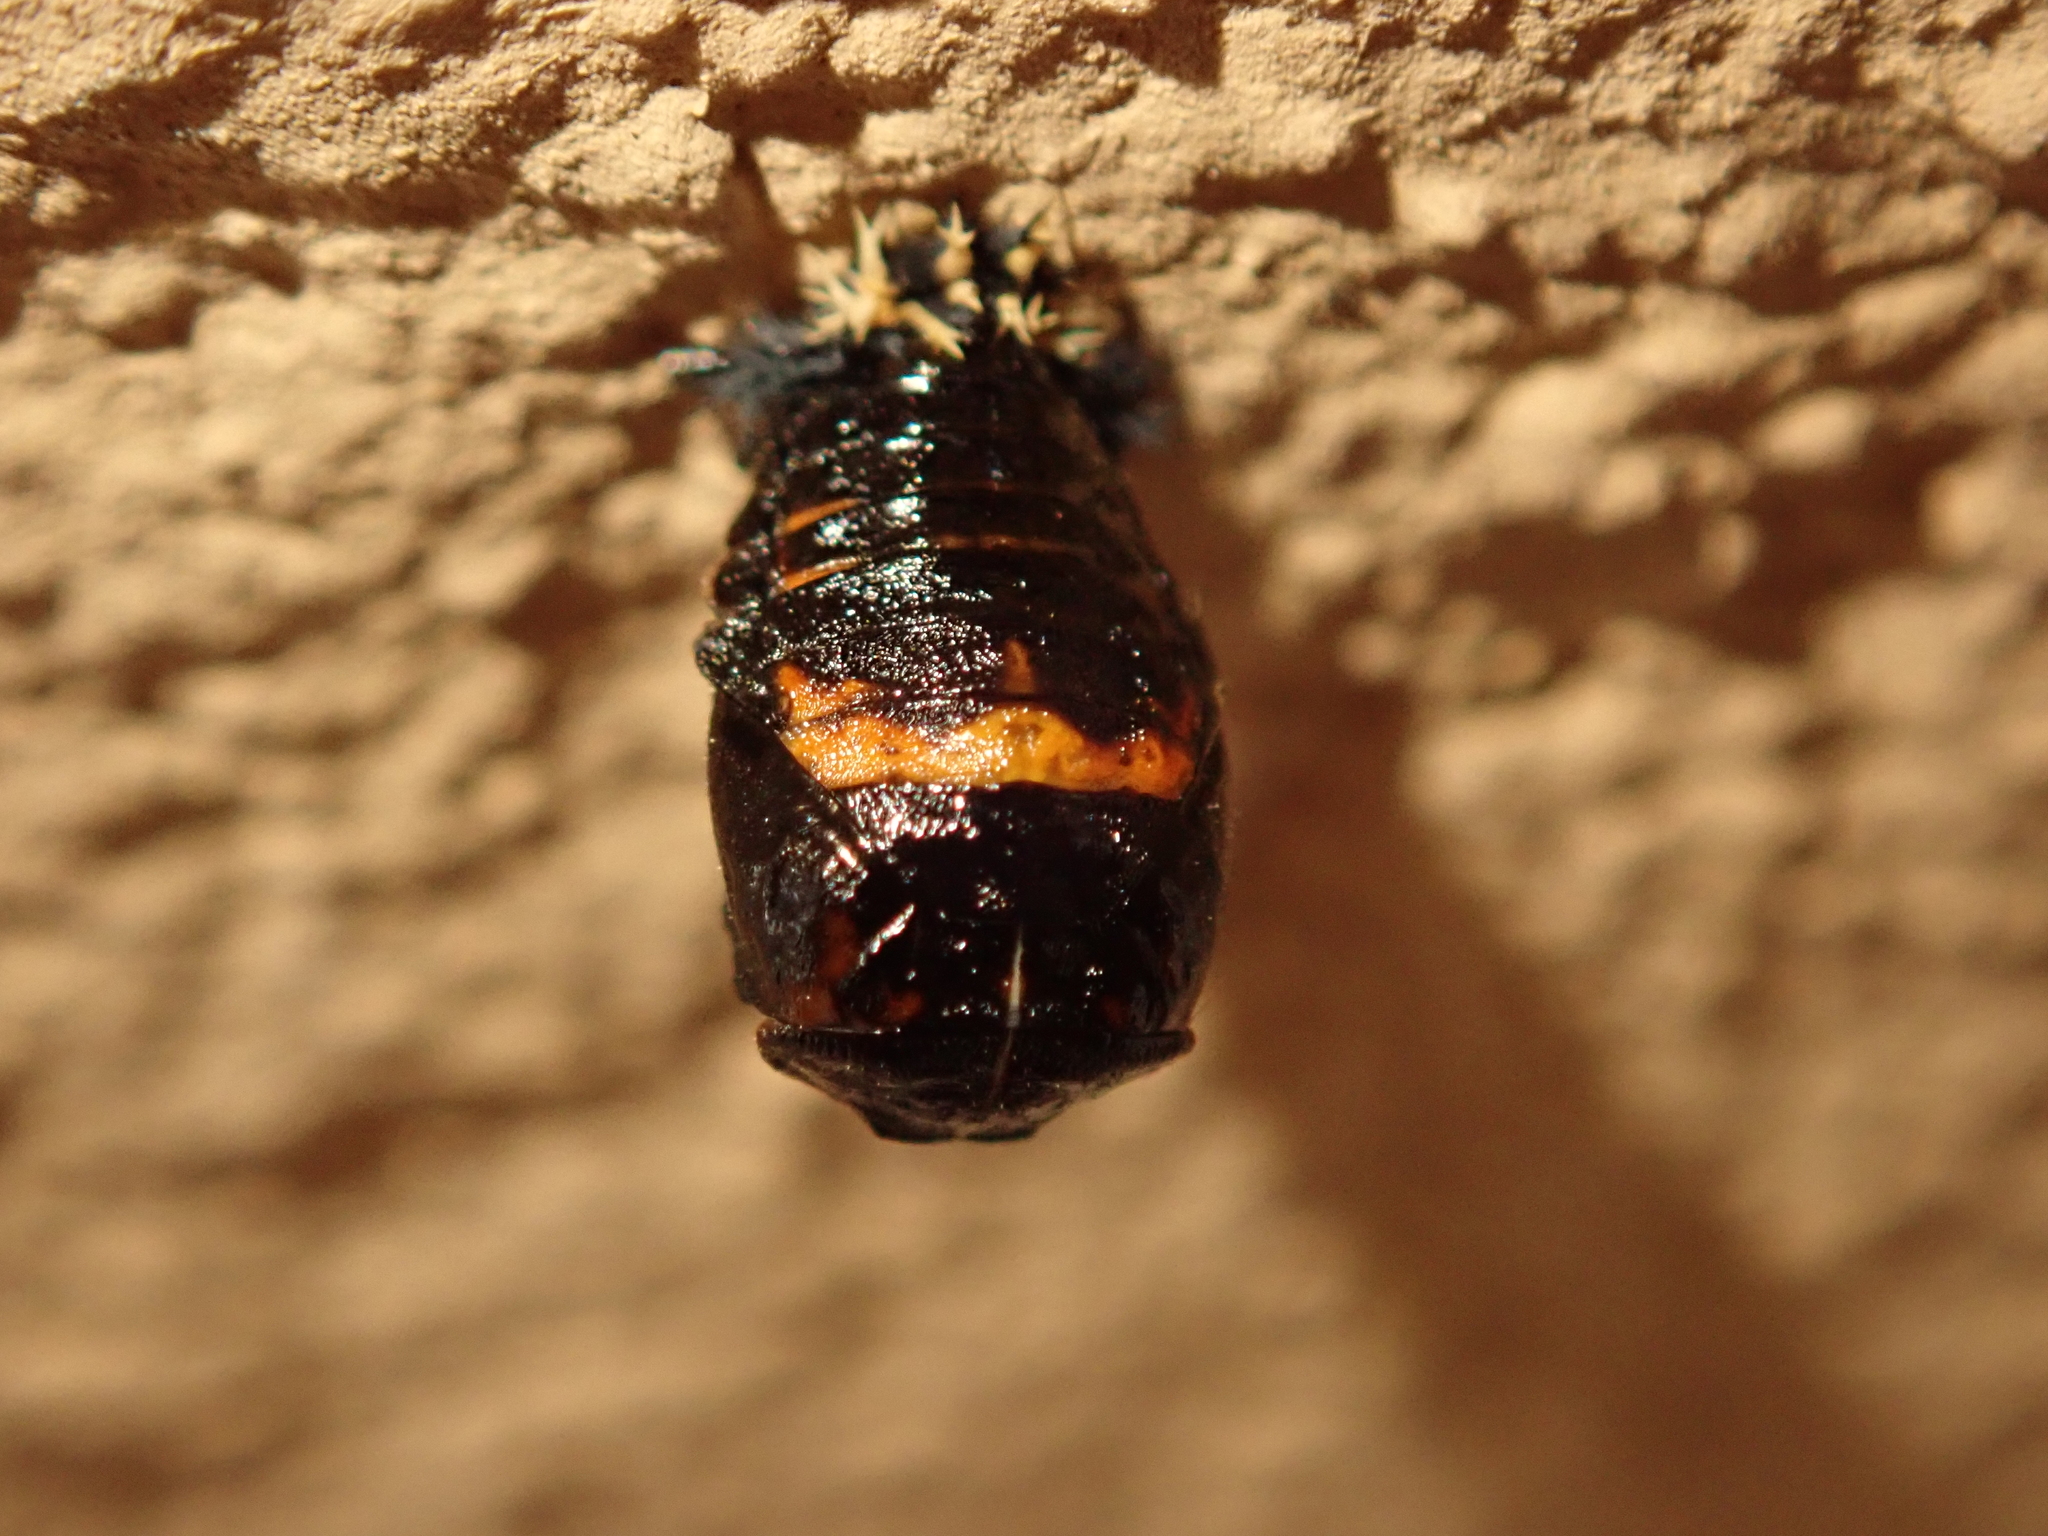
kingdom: Animalia
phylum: Arthropoda
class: Insecta
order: Coleoptera
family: Coccinellidae
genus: Harmonia
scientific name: Harmonia axyridis
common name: Harlequin ladybird
